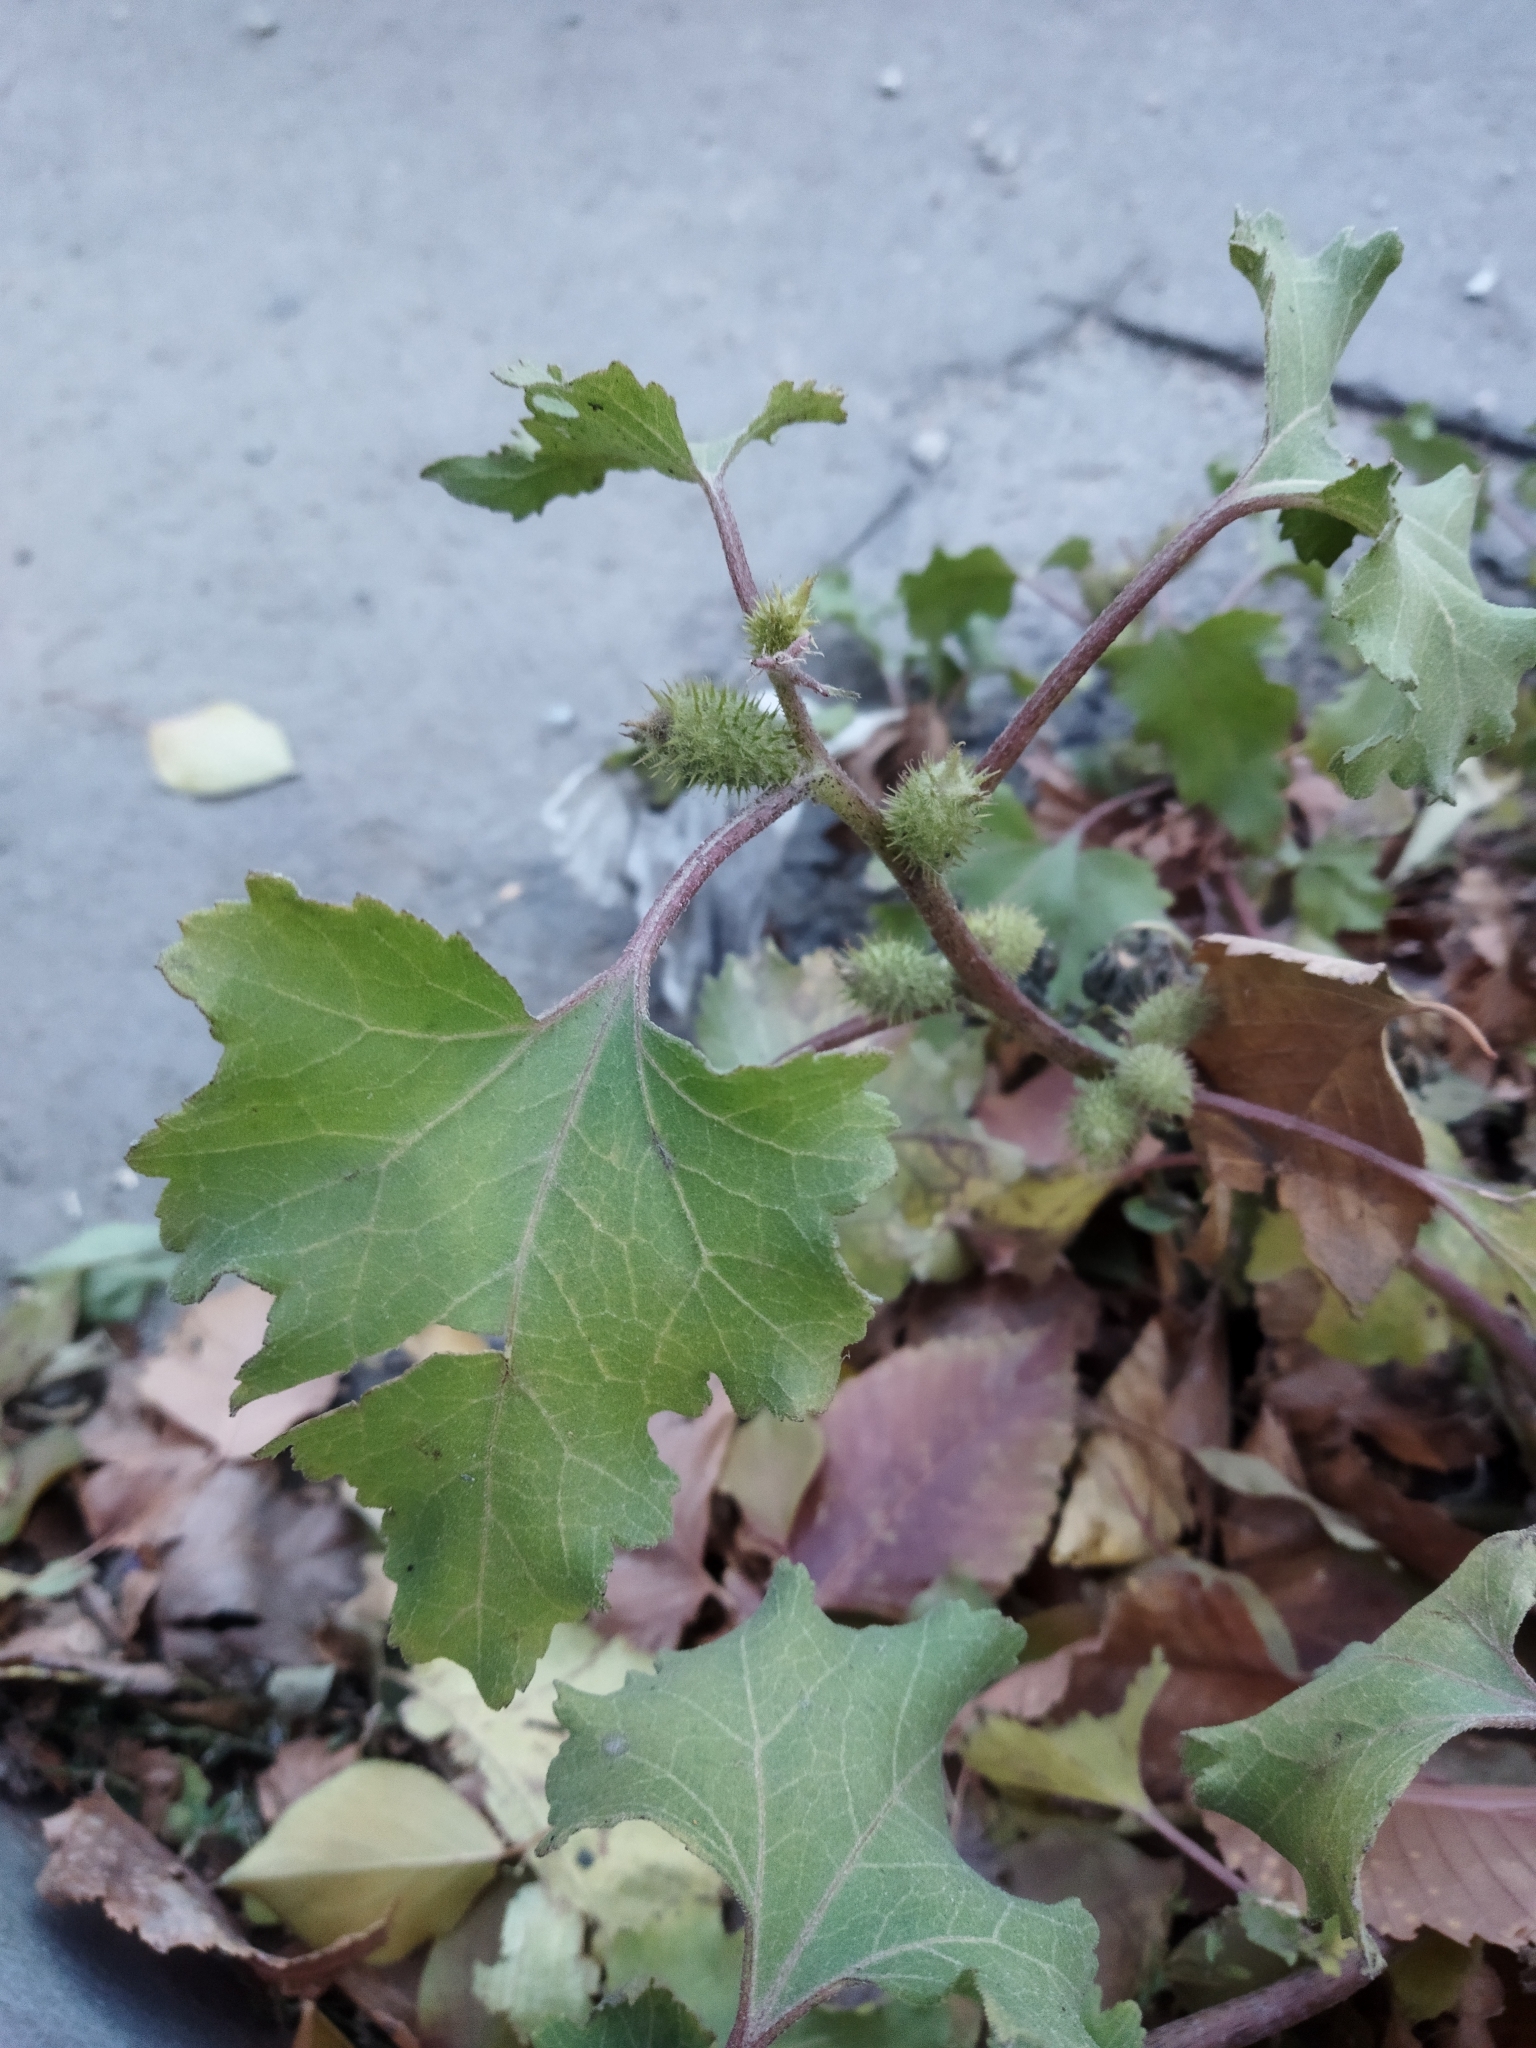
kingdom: Plantae
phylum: Tracheophyta
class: Magnoliopsida
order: Asterales
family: Asteraceae
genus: Xanthium
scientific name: Xanthium orientale
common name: Californian burr
